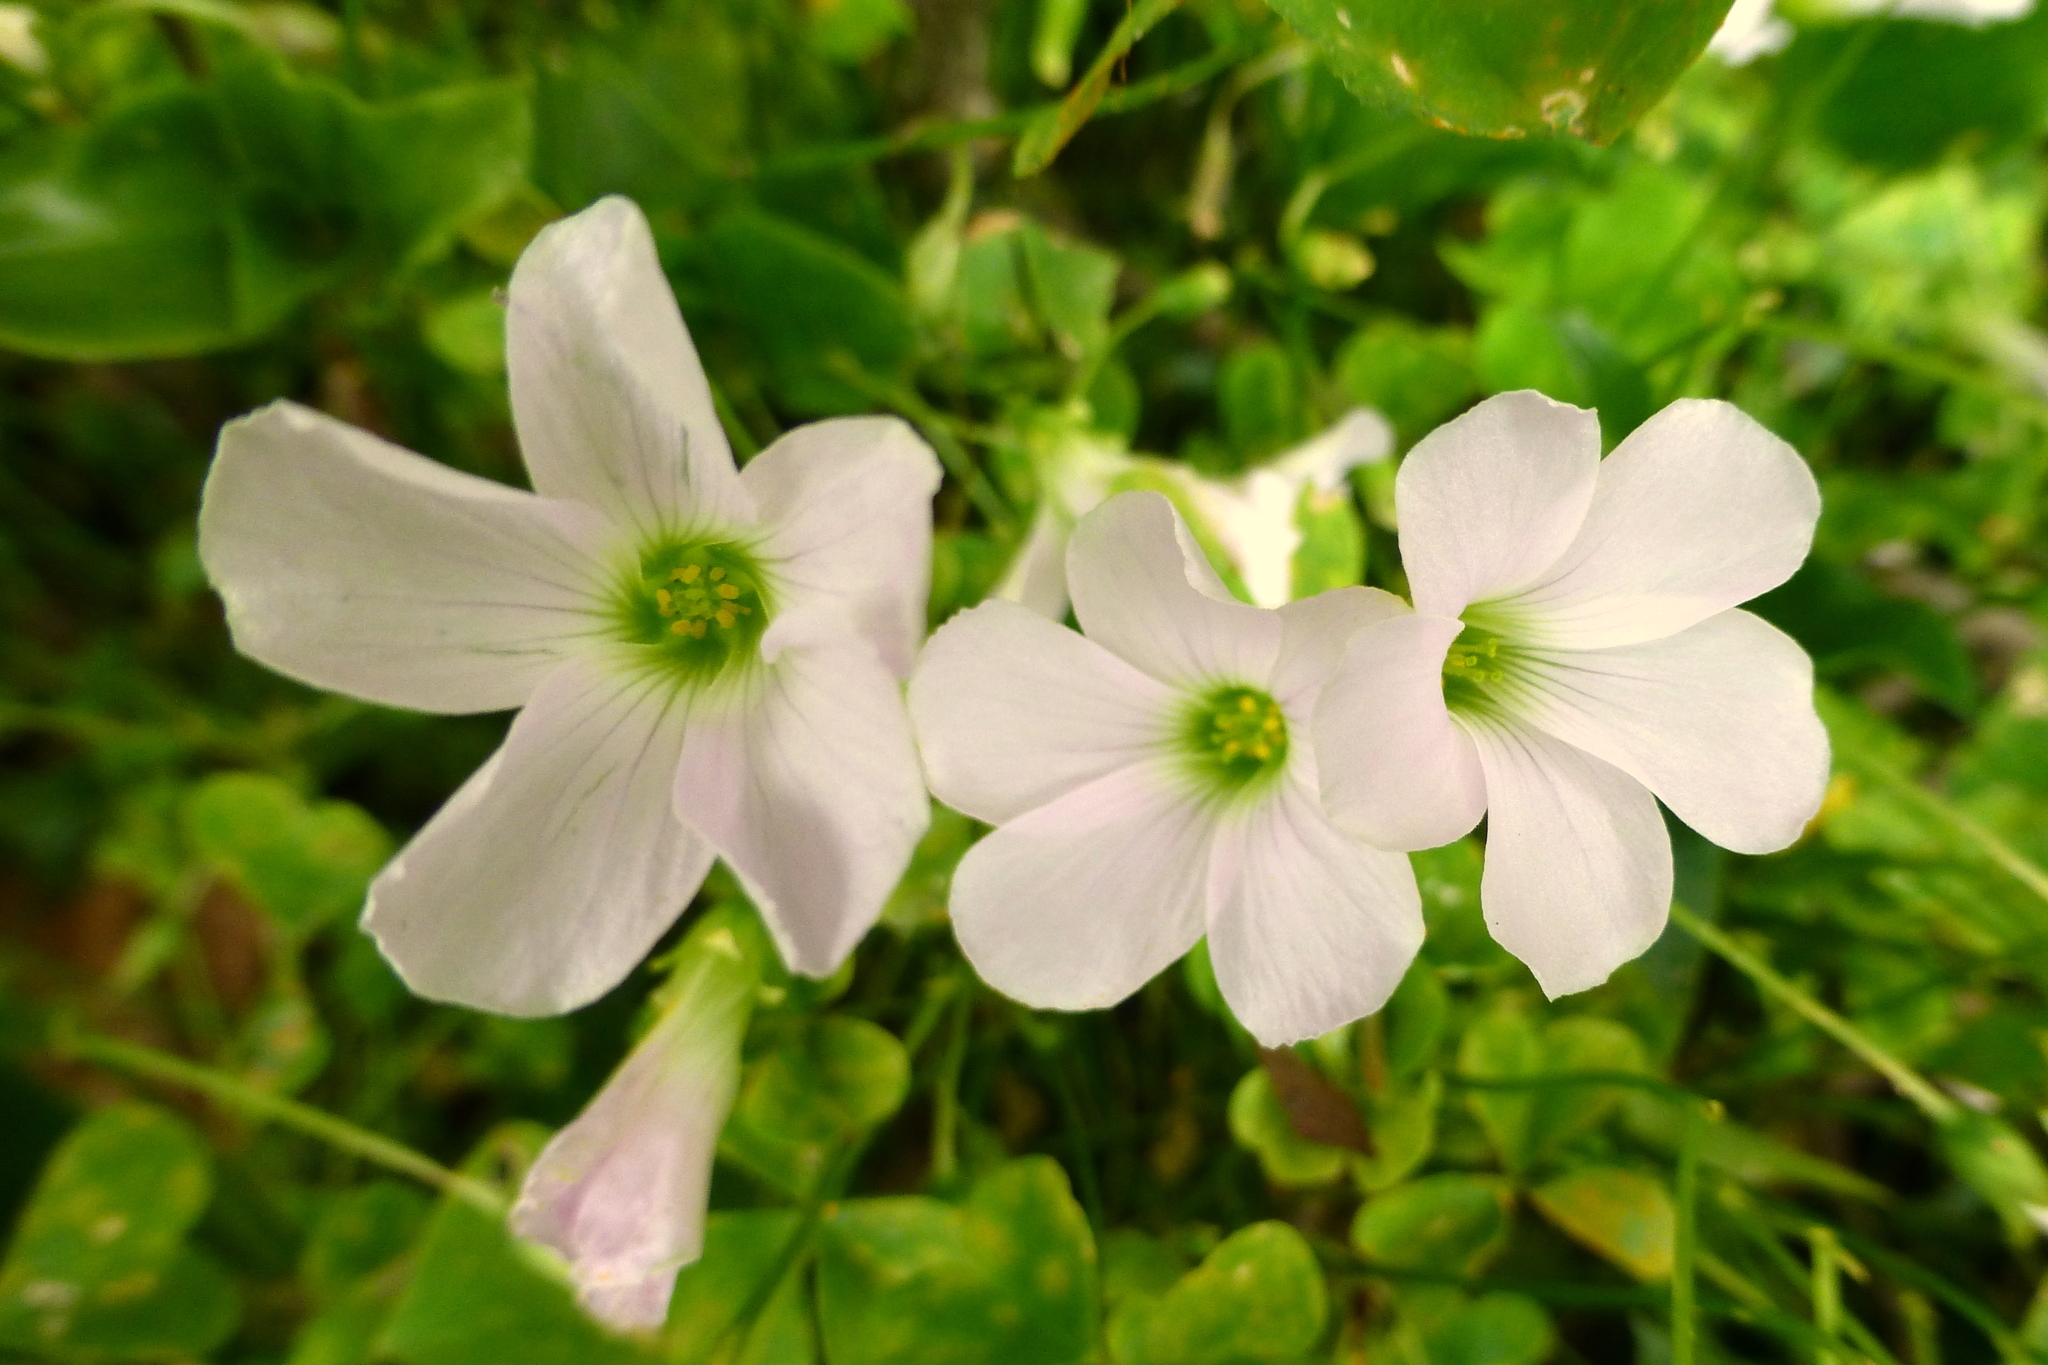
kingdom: Plantae
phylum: Tracheophyta
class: Magnoliopsida
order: Oxalidales
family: Oxalidaceae
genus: Oxalis
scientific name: Oxalis incarnata
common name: Pale pink-sorrel
